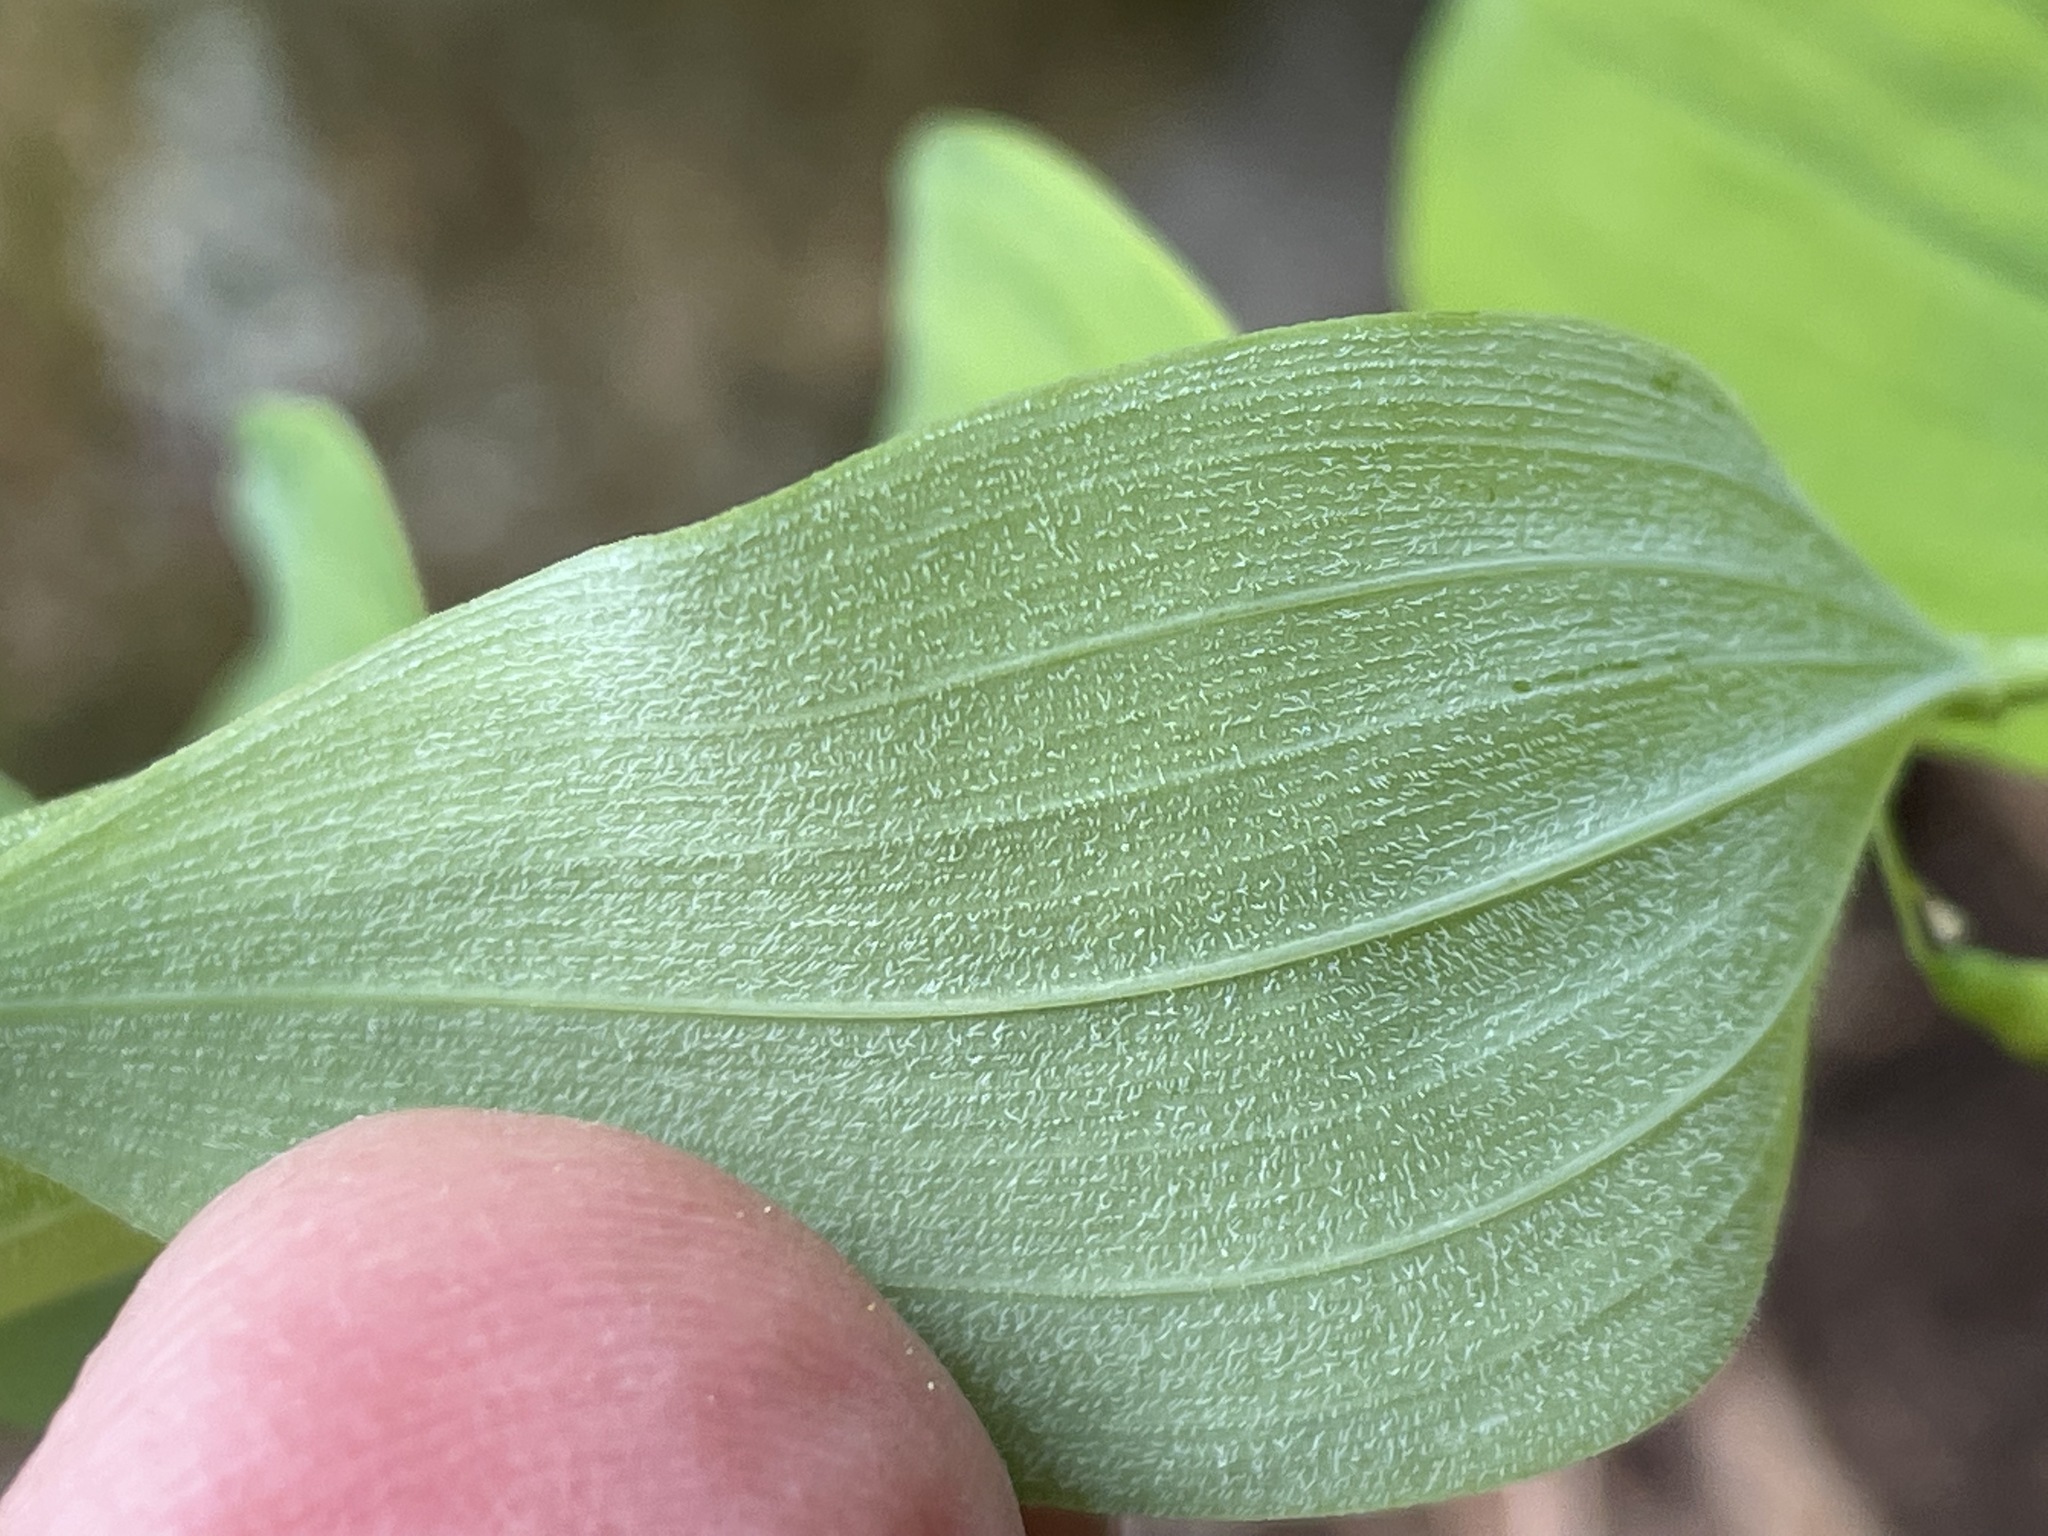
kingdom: Plantae
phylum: Tracheophyta
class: Liliopsida
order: Asparagales
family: Asparagaceae
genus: Polygonatum
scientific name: Polygonatum pubescens
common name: Downy solomon's seal
